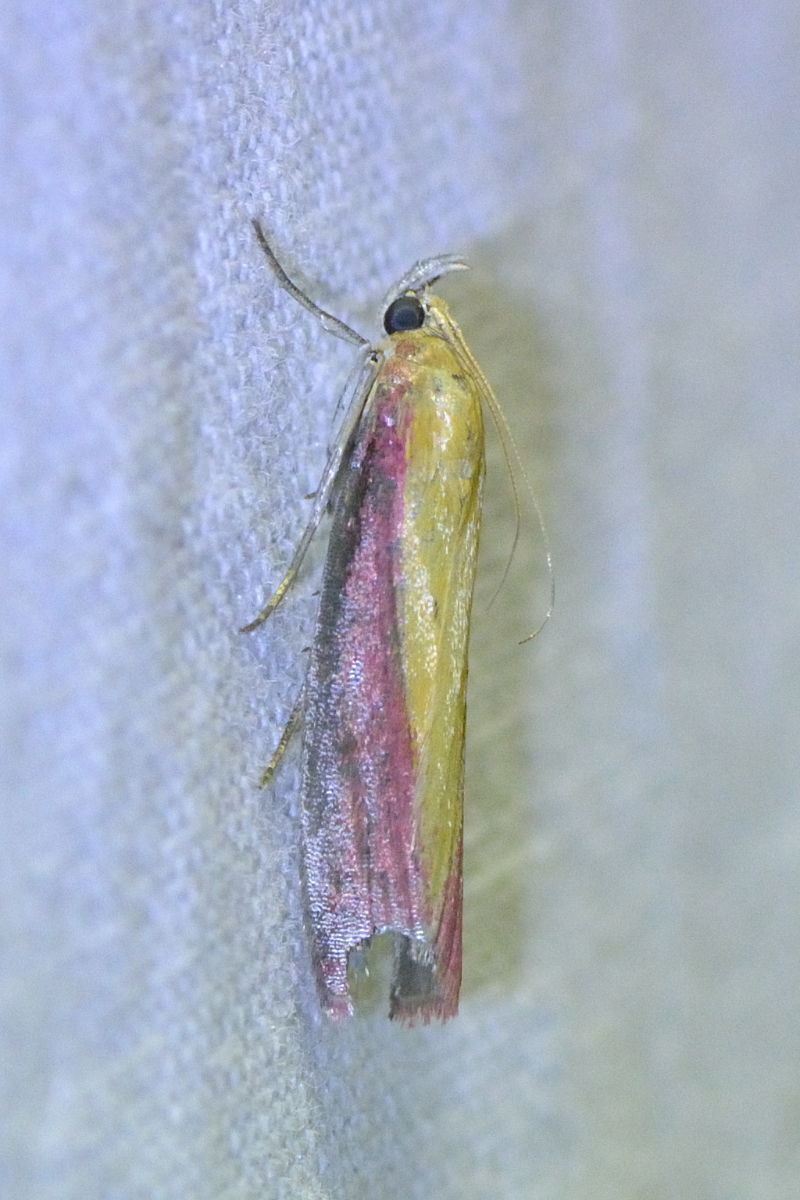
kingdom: Animalia
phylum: Arthropoda
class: Insecta
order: Lepidoptera
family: Pyralidae
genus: Oncocera
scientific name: Oncocera semirubella
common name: Rosy-striped knot-horn
